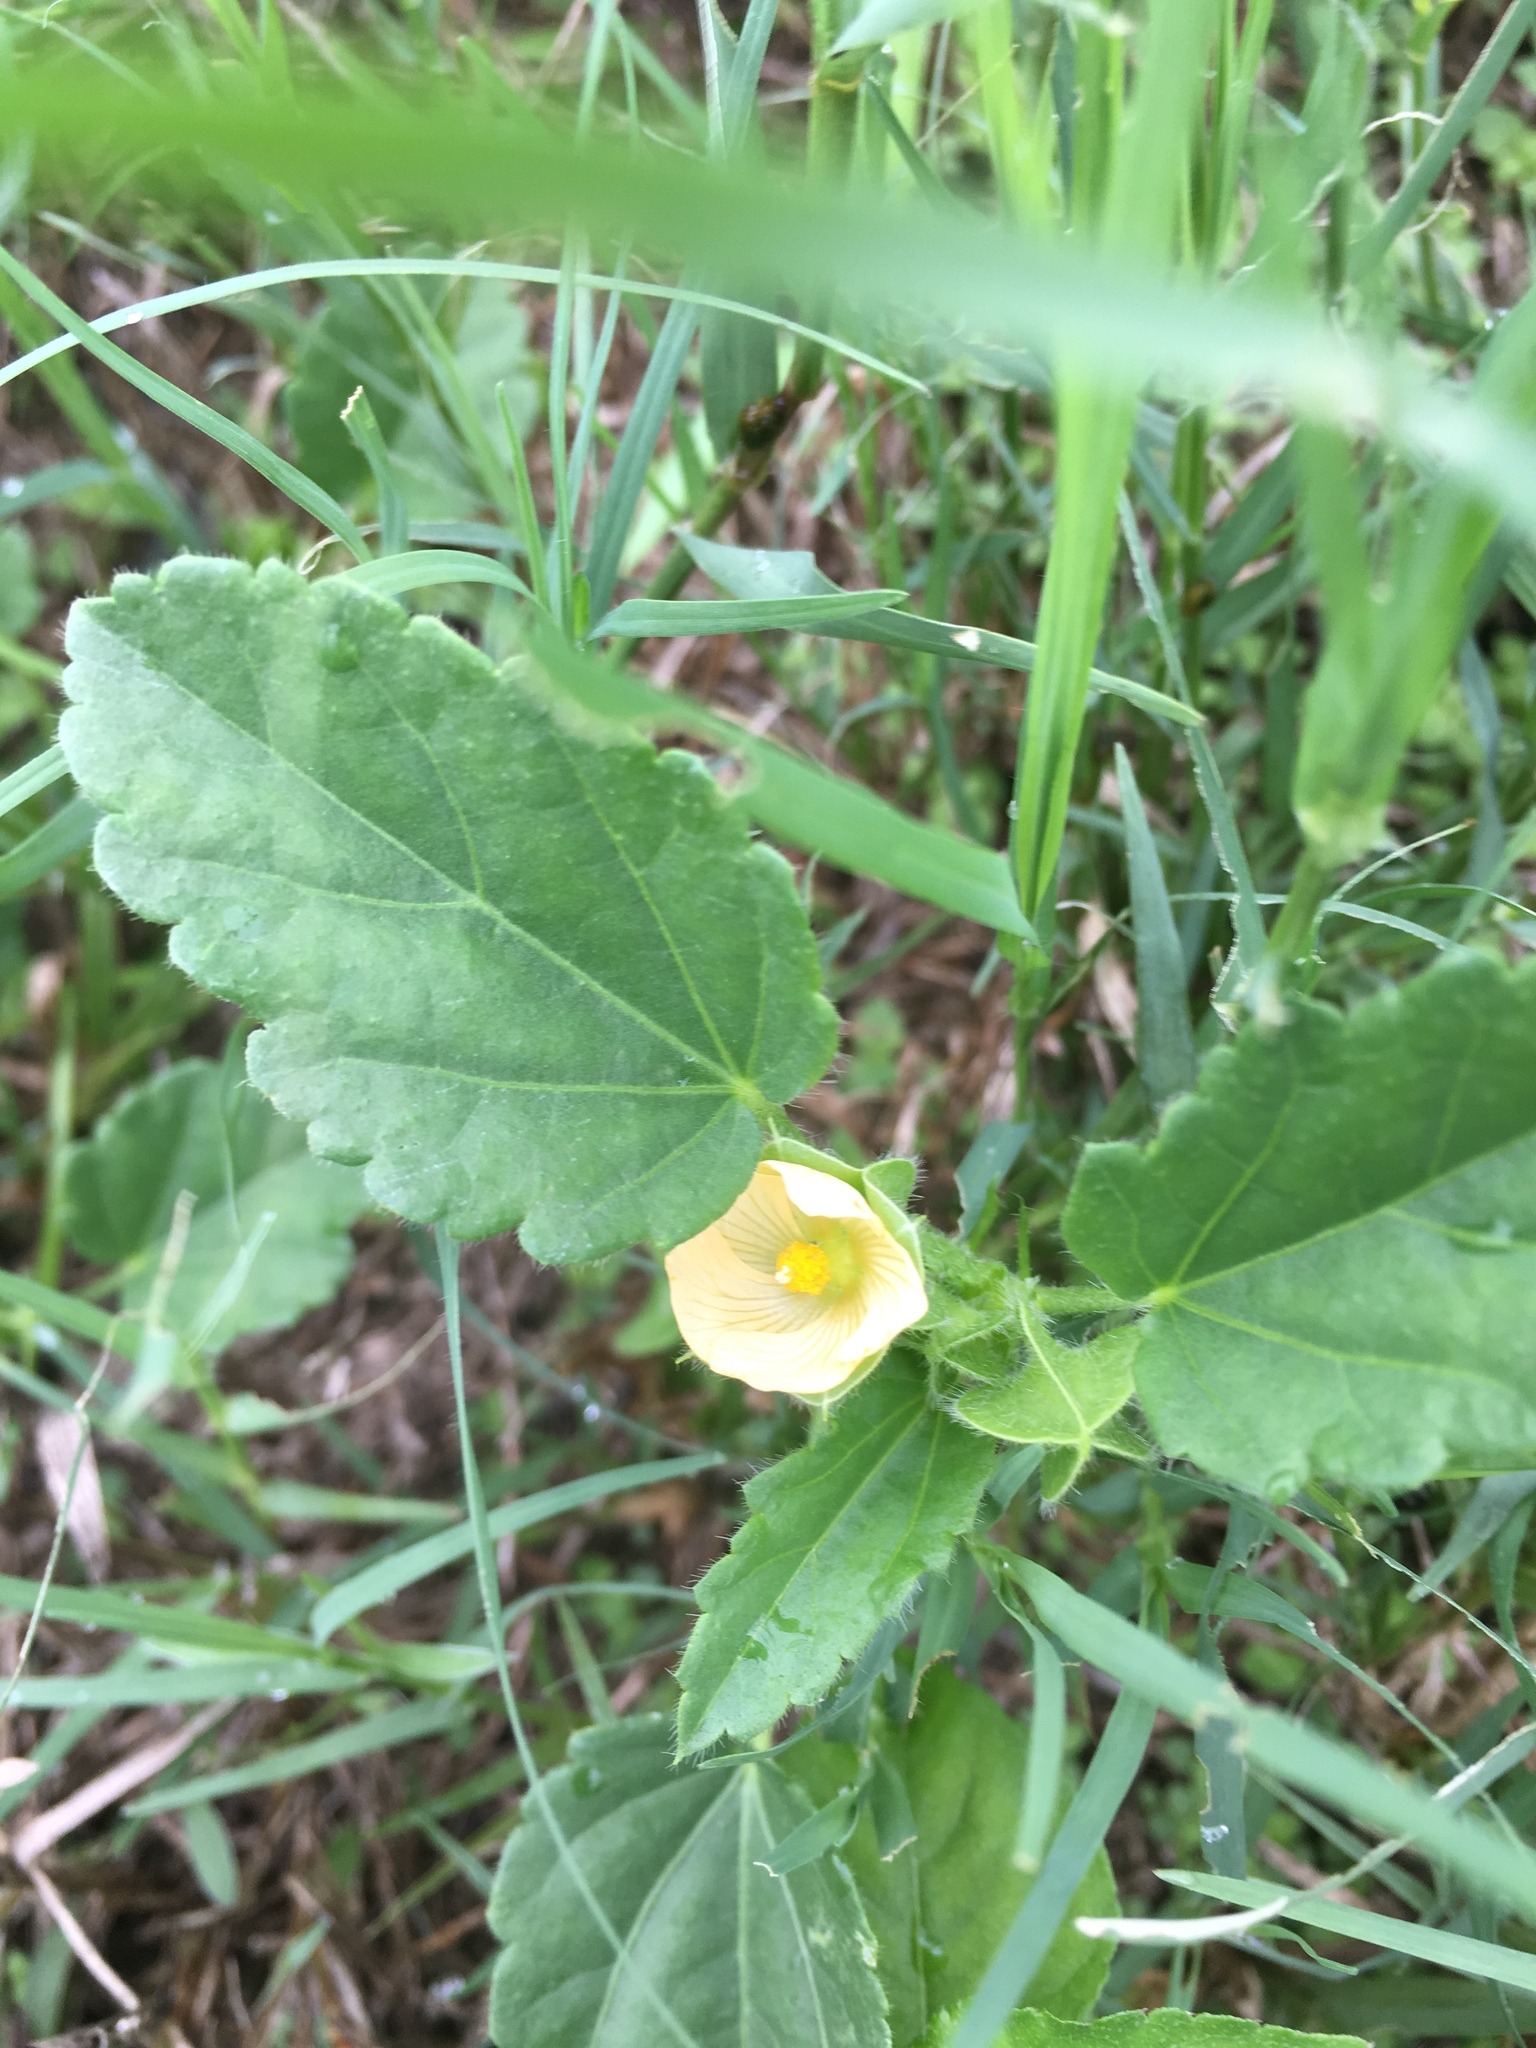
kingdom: Plantae
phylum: Tracheophyta
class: Magnoliopsida
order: Malvales
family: Malvaceae
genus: Rhynchosida
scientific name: Rhynchosida physocalyx
